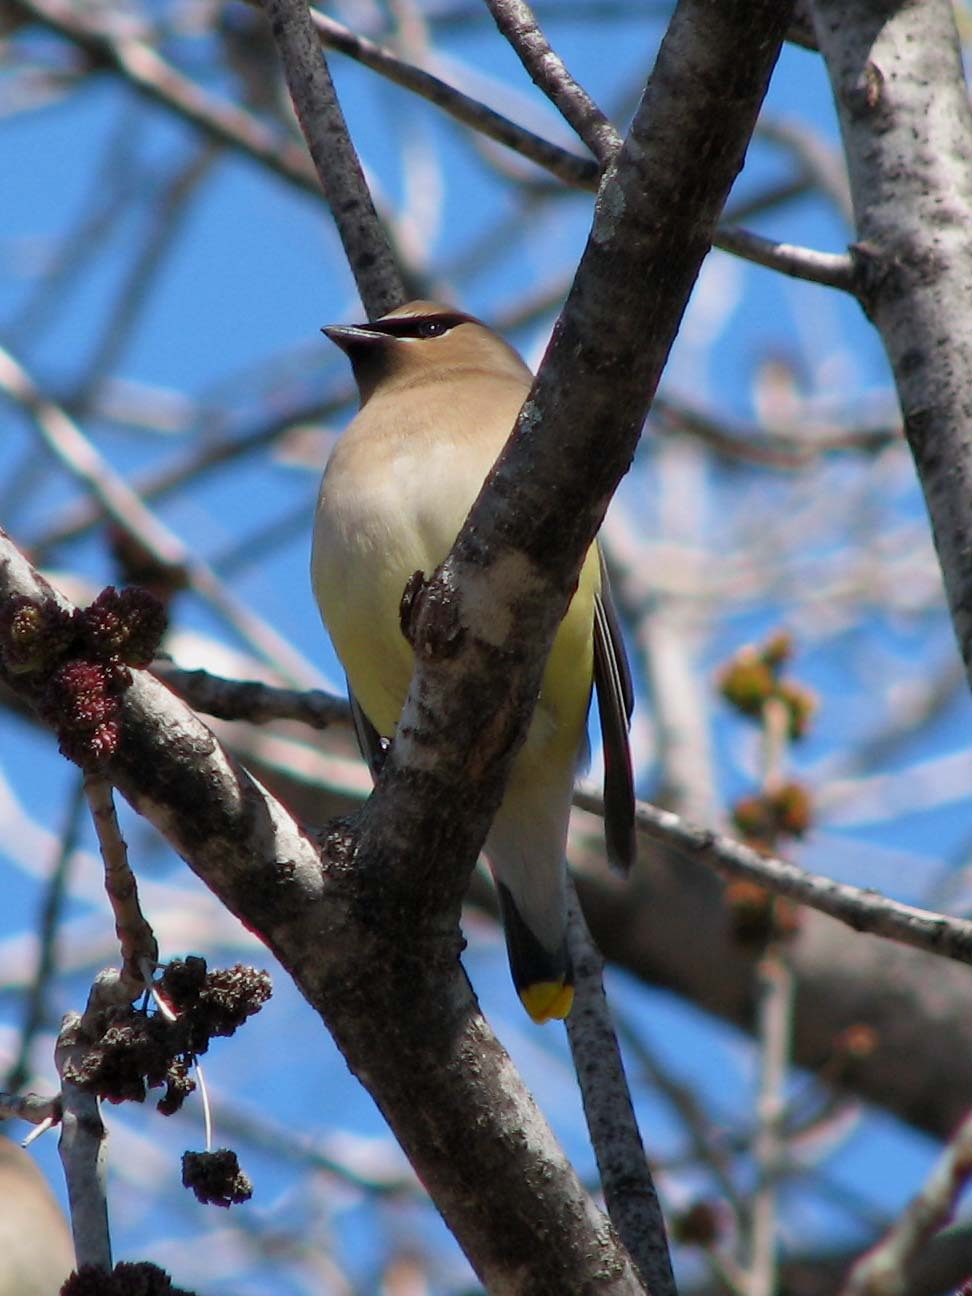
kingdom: Animalia
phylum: Chordata
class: Aves
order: Passeriformes
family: Bombycillidae
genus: Bombycilla
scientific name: Bombycilla cedrorum
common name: Cedar waxwing
